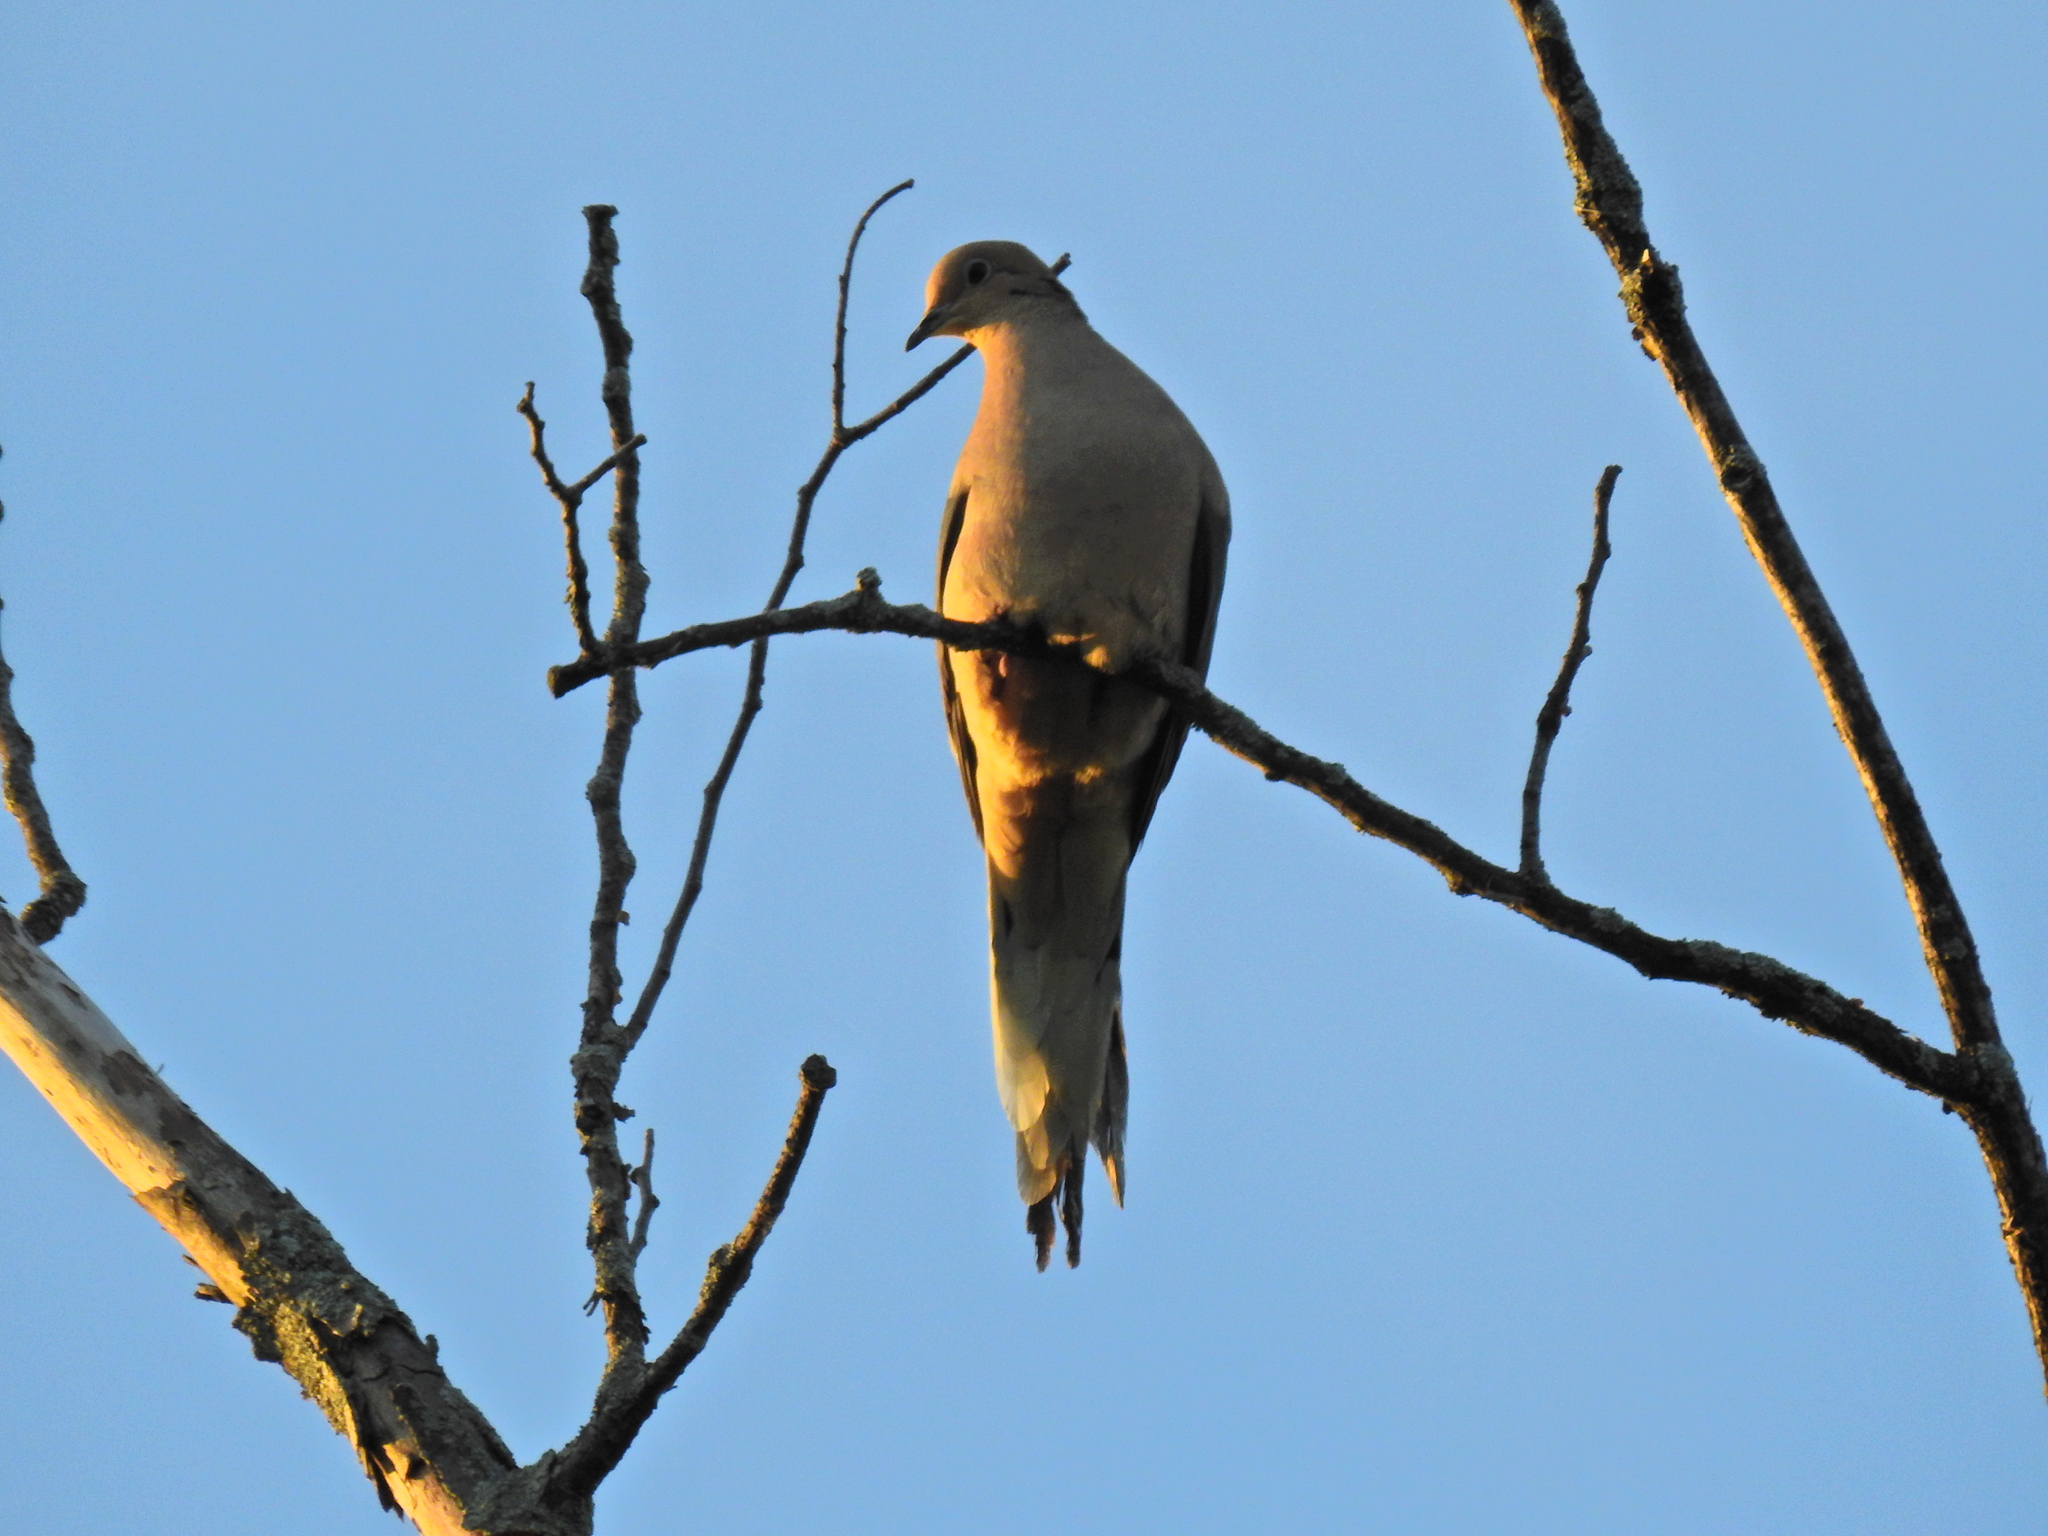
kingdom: Animalia
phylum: Chordata
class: Aves
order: Columbiformes
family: Columbidae
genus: Zenaida
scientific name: Zenaida macroura
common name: Mourning dove
